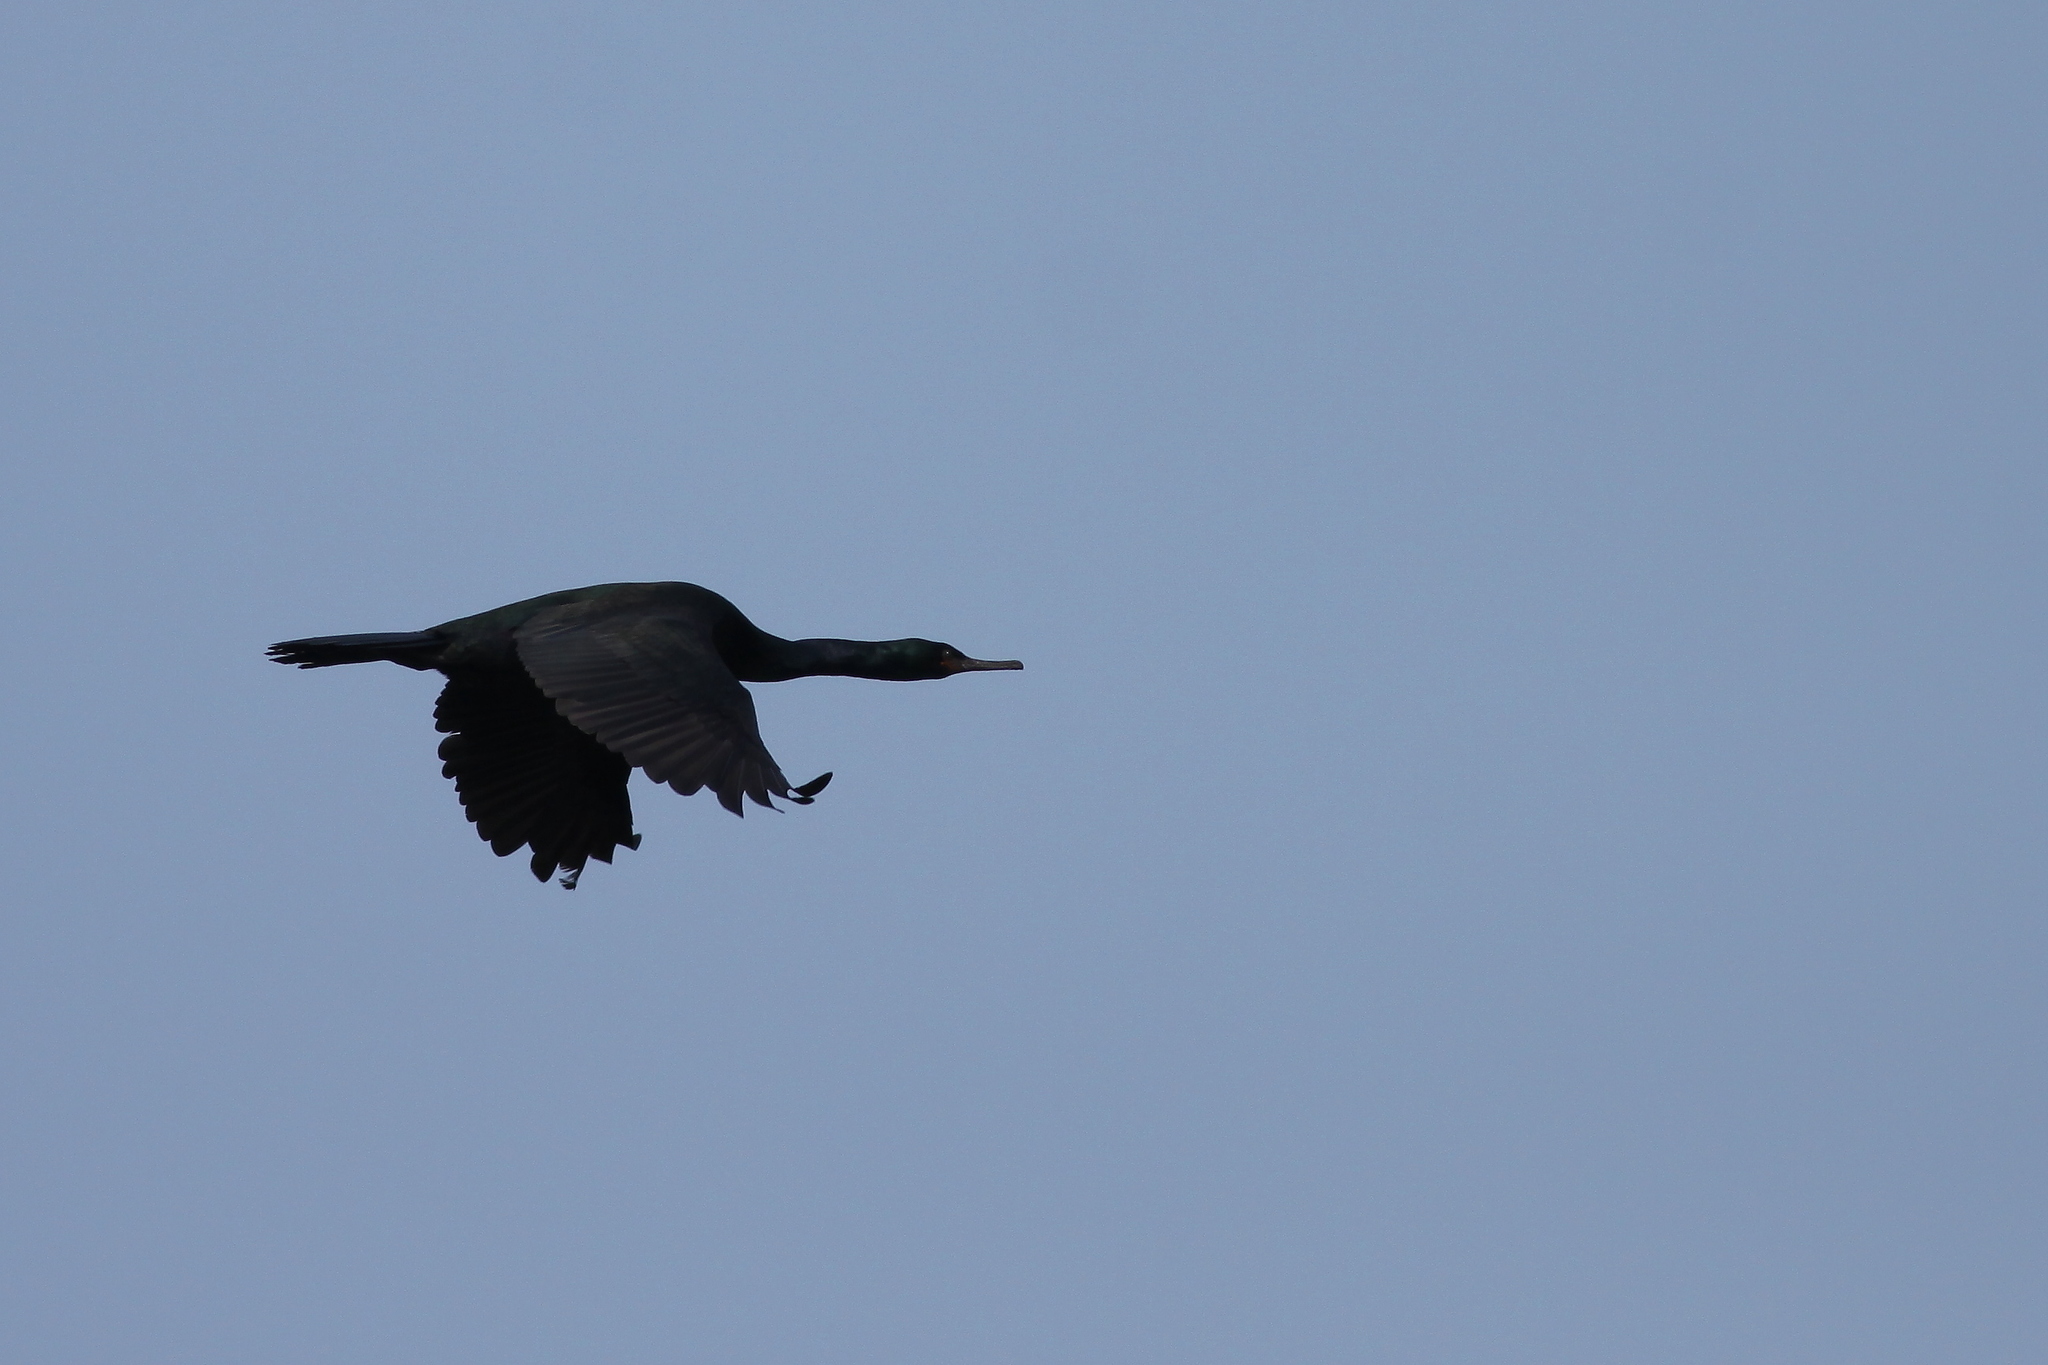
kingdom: Animalia
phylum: Chordata
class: Aves
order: Suliformes
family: Phalacrocoracidae
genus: Phalacrocorax
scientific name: Phalacrocorax pelagicus
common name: Pelagic cormorant
